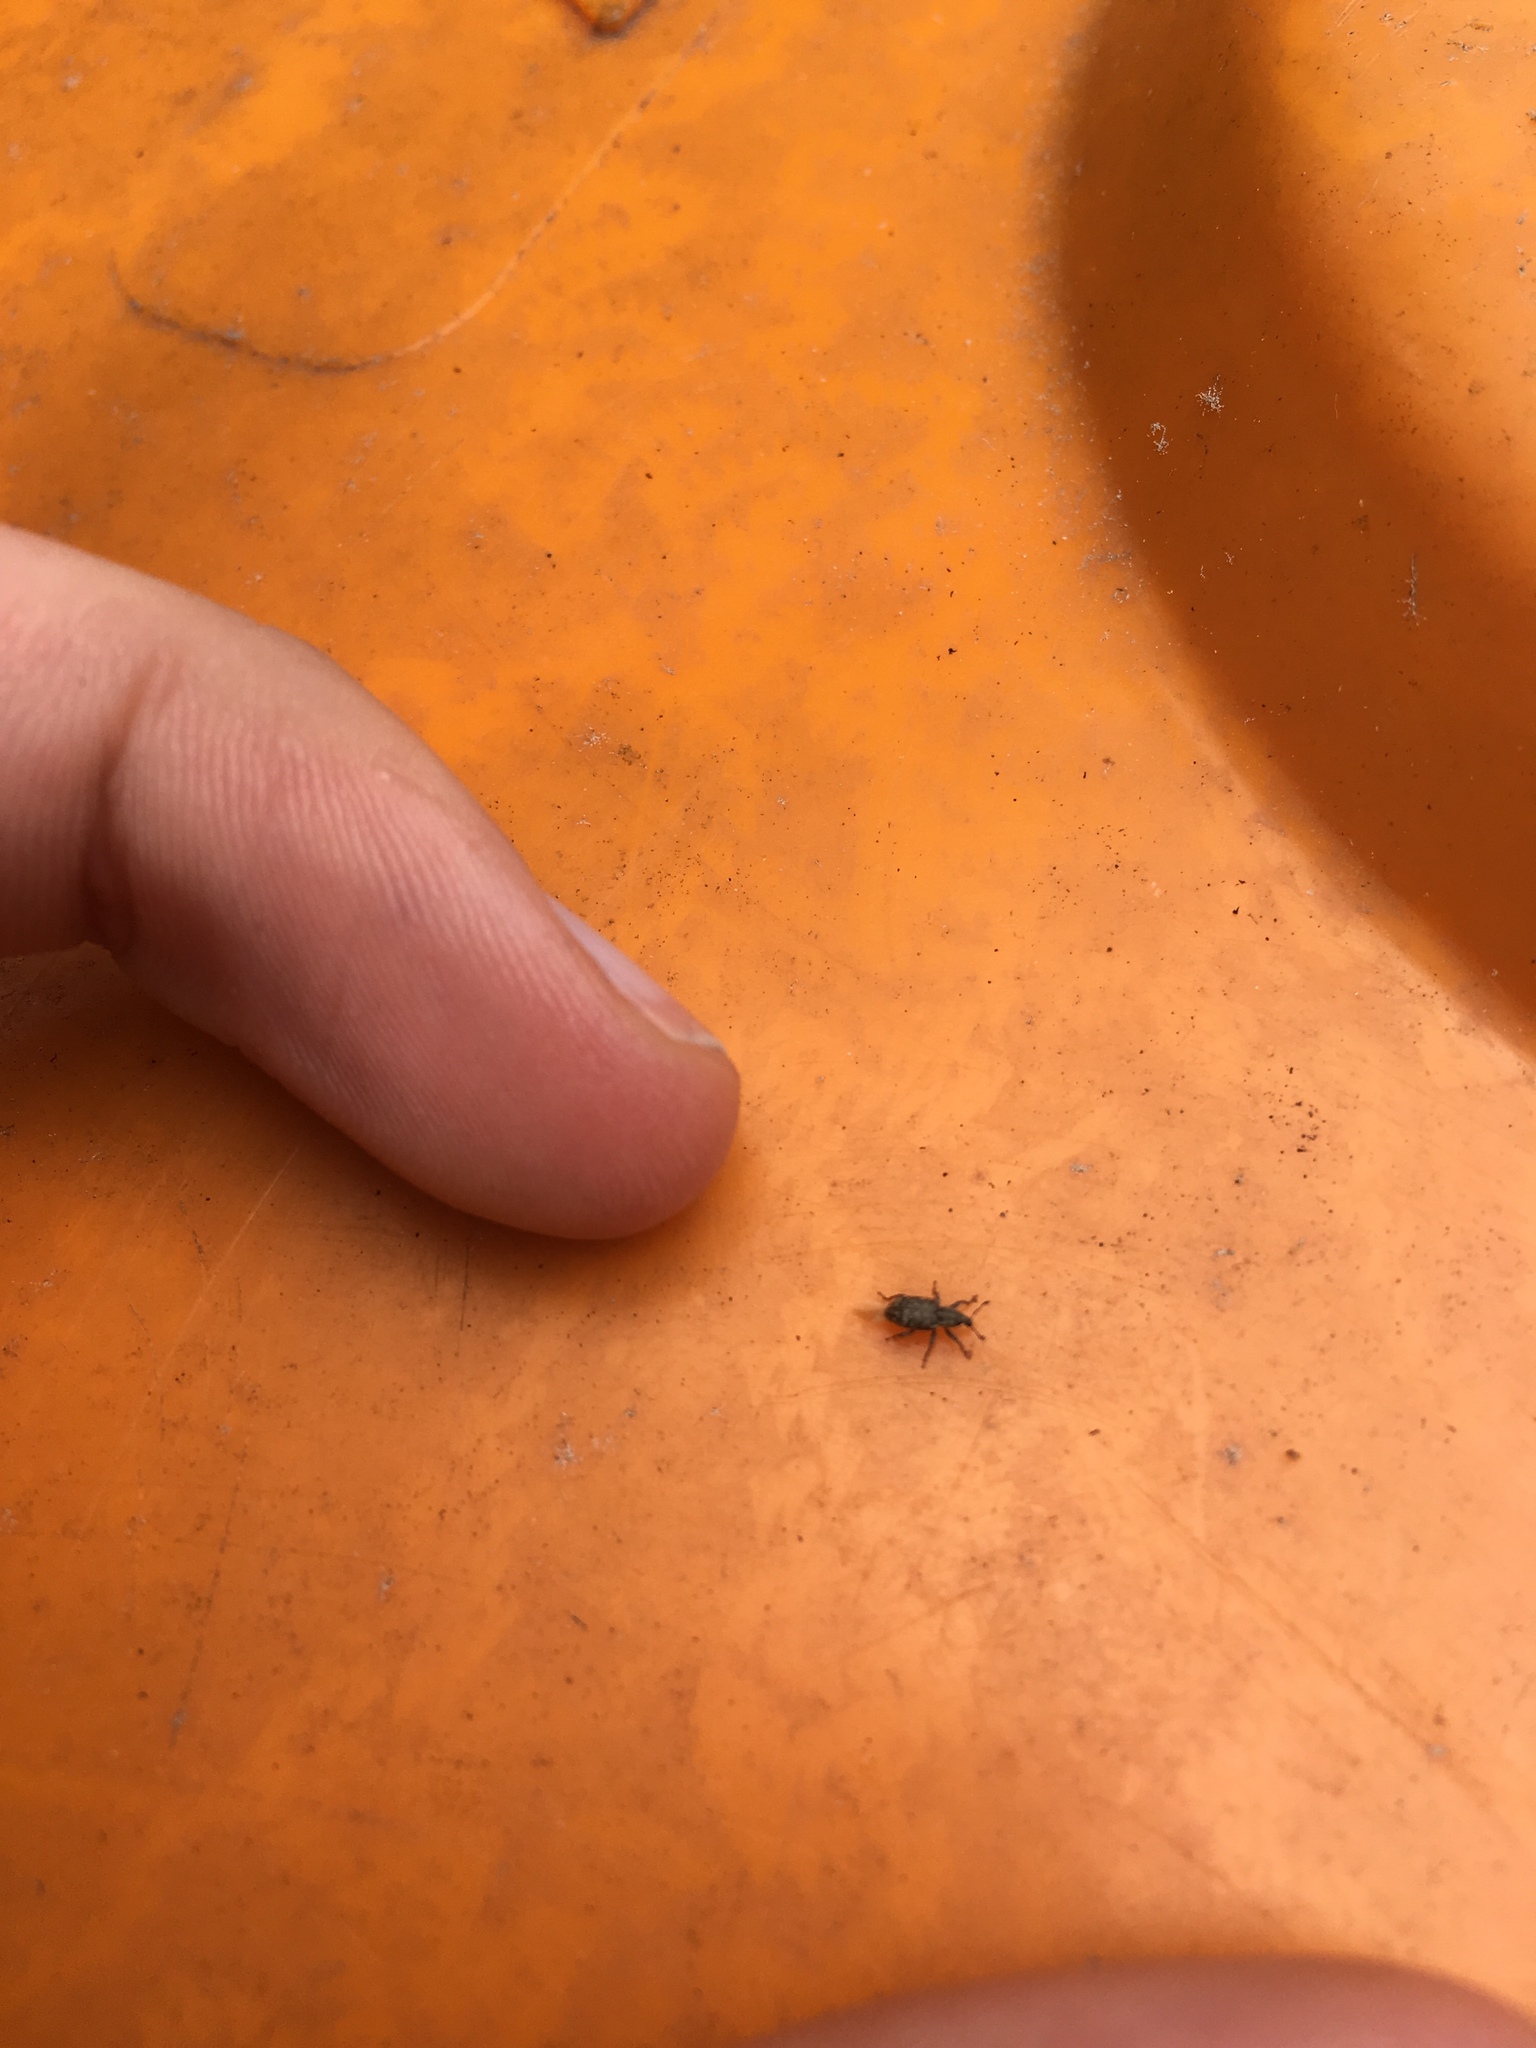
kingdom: Animalia
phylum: Arthropoda
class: Insecta
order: Coleoptera
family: Curculionidae
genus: Listronotus
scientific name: Listronotus bonariensis
